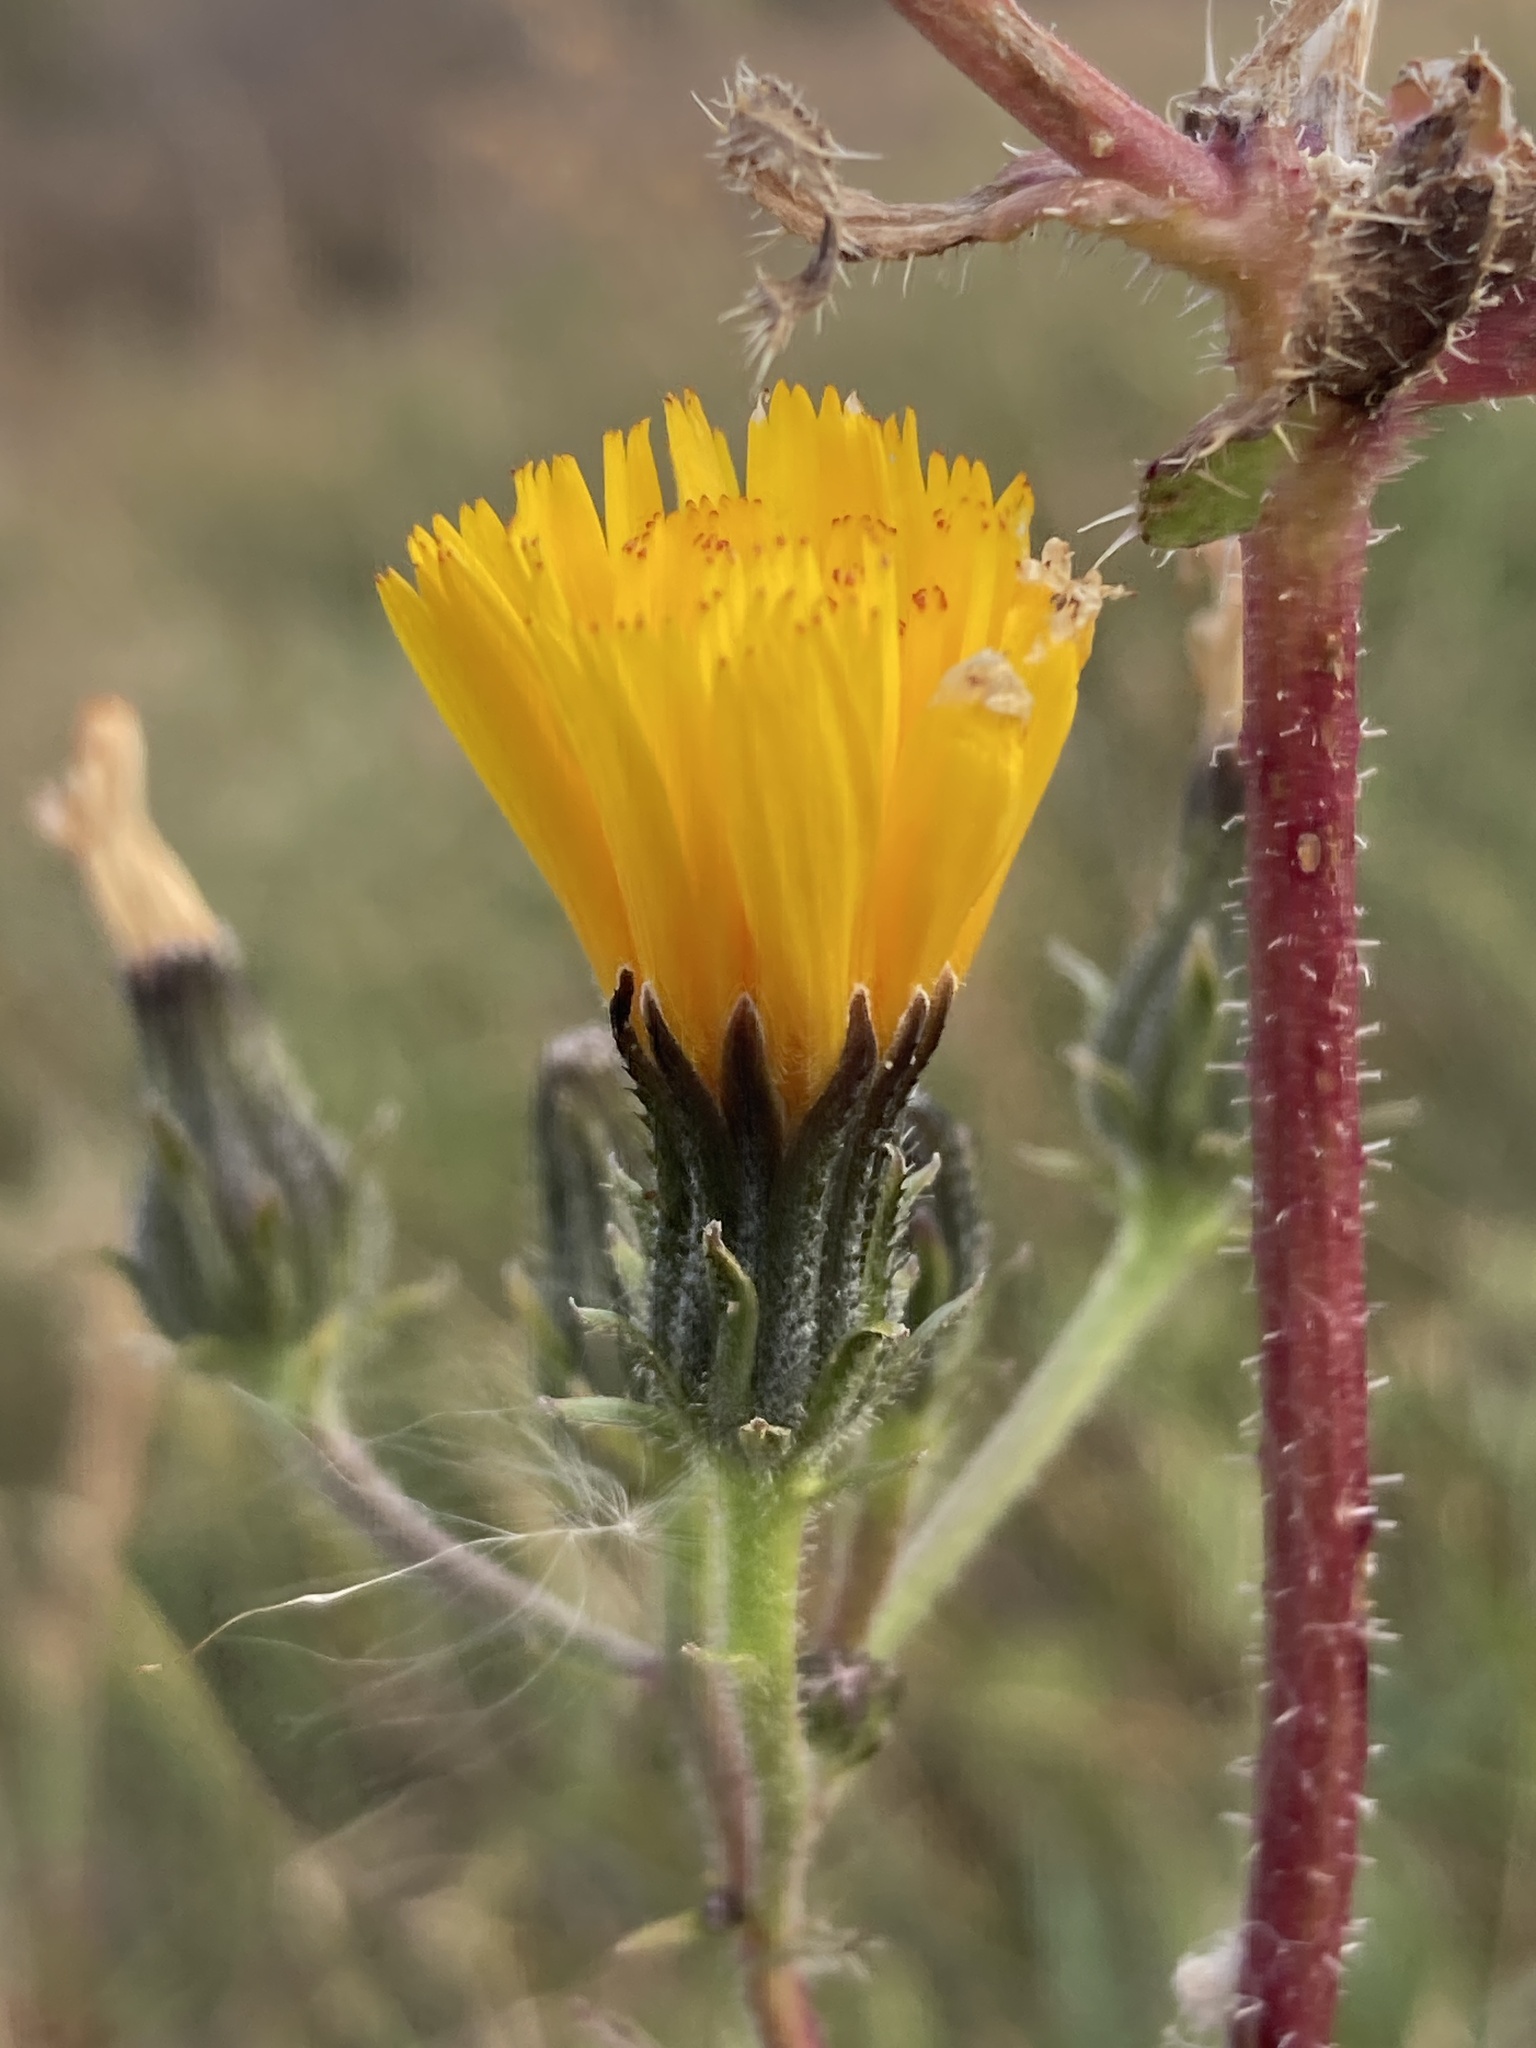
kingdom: Plantae
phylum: Tracheophyta
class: Magnoliopsida
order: Asterales
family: Asteraceae
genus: Picris
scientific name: Picris hieracioides
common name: Hawkweed oxtongue
